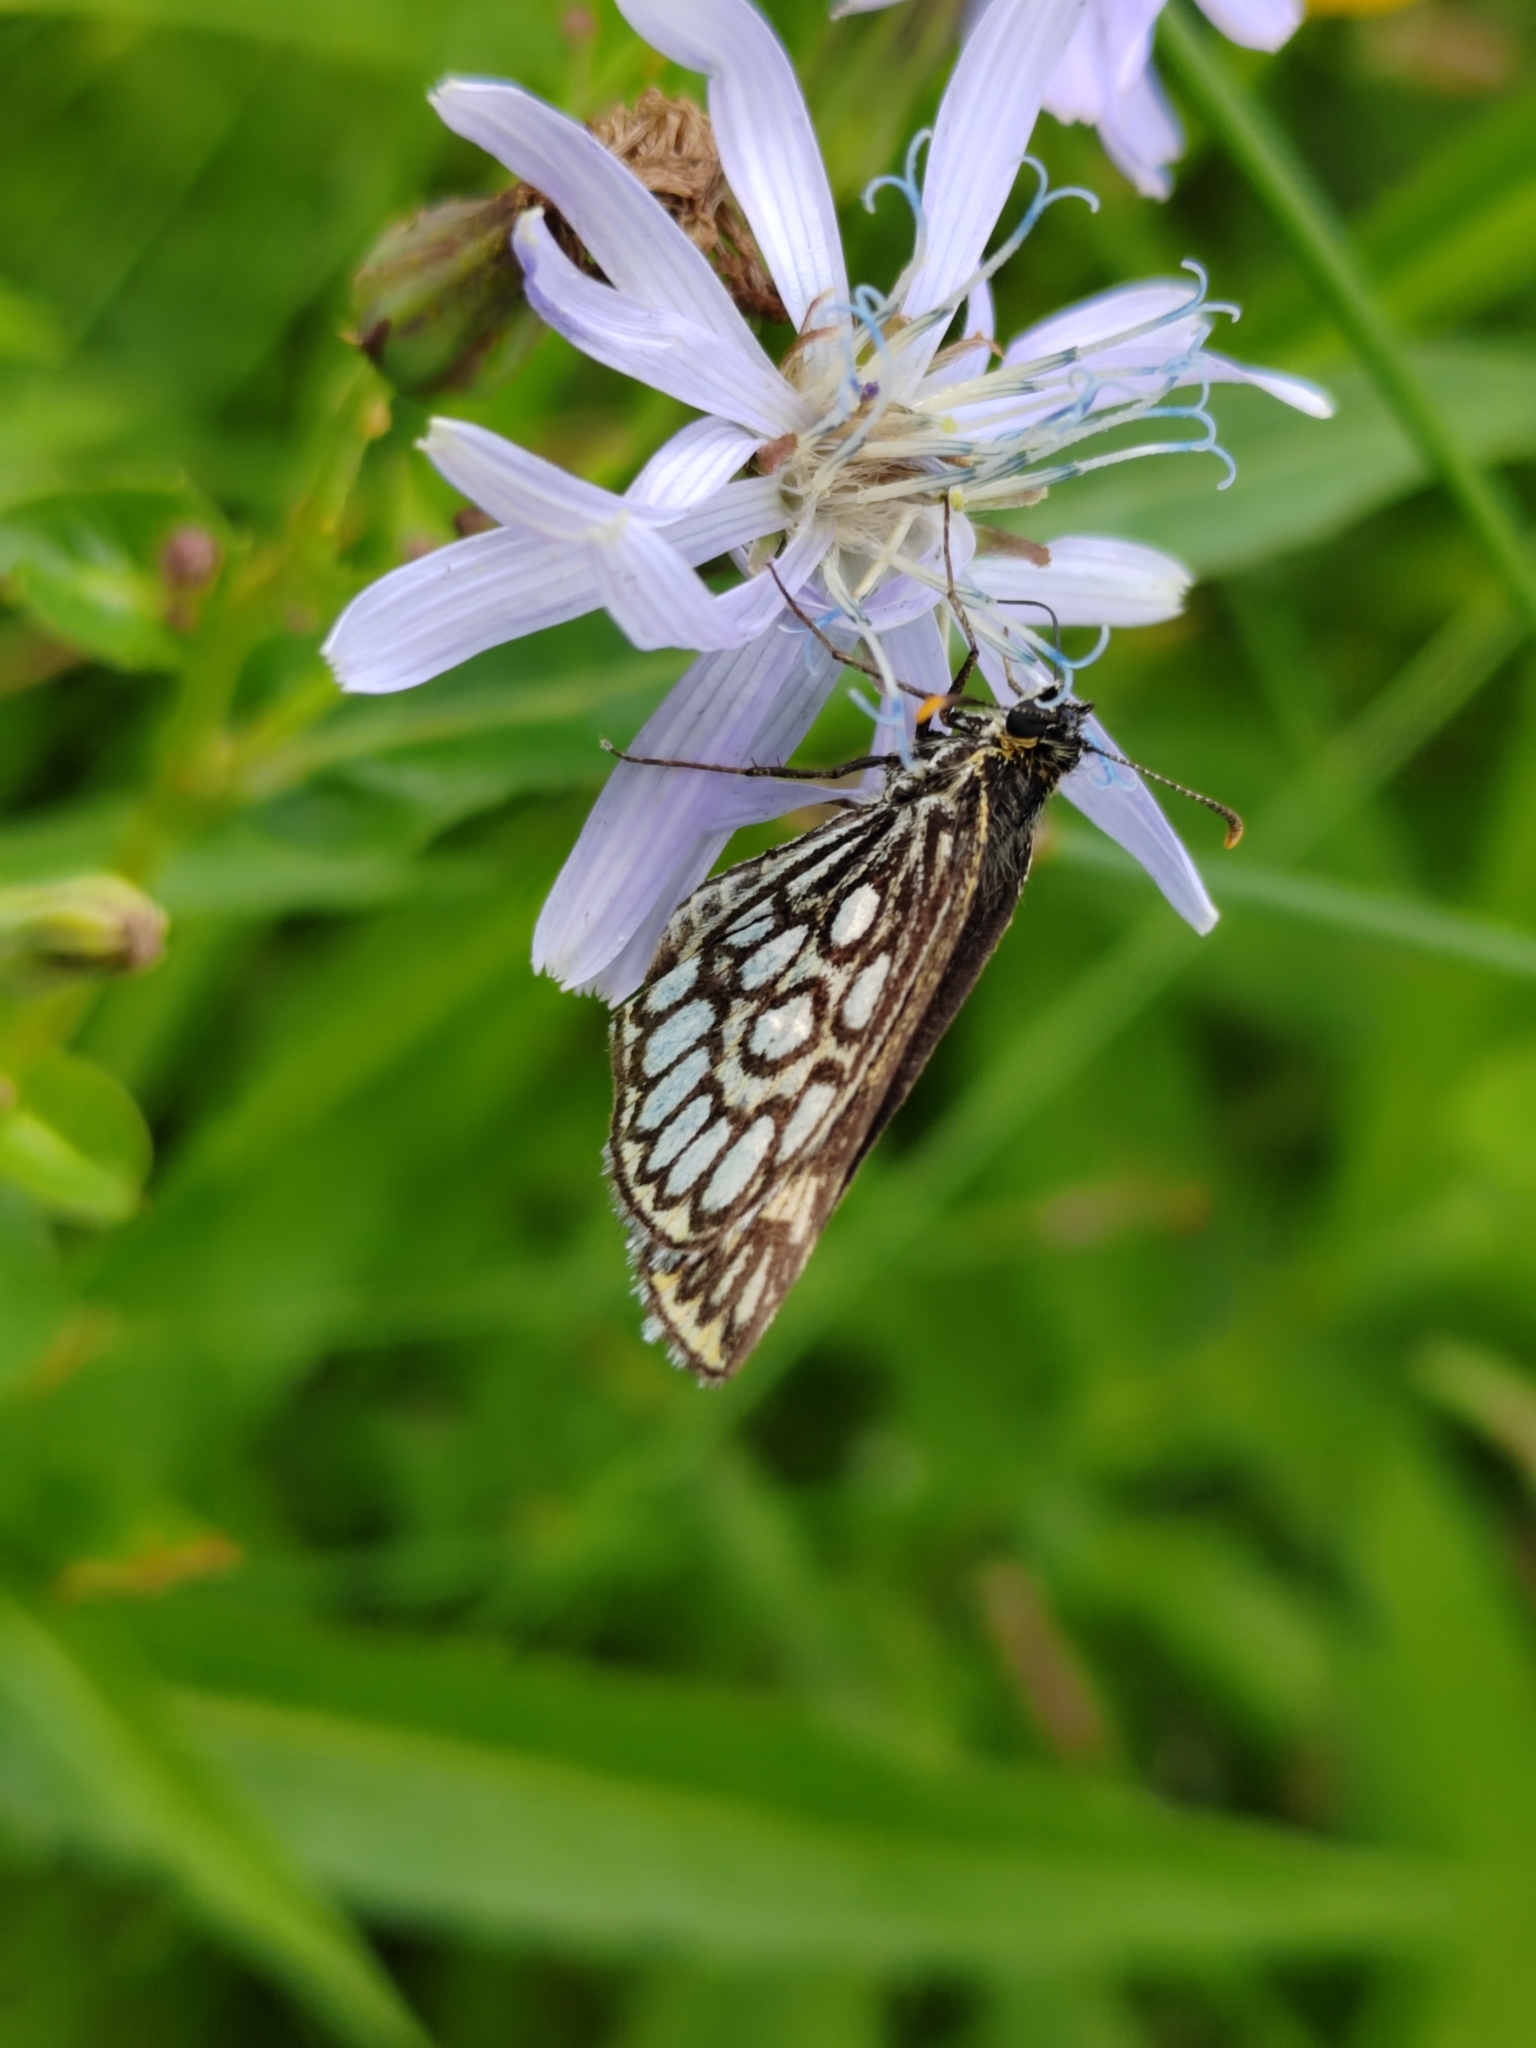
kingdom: Animalia
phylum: Arthropoda
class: Insecta
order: Lepidoptera
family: Hesperiidae
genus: Heteropterus
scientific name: Heteropterus morpheus
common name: Large chequered skipper
